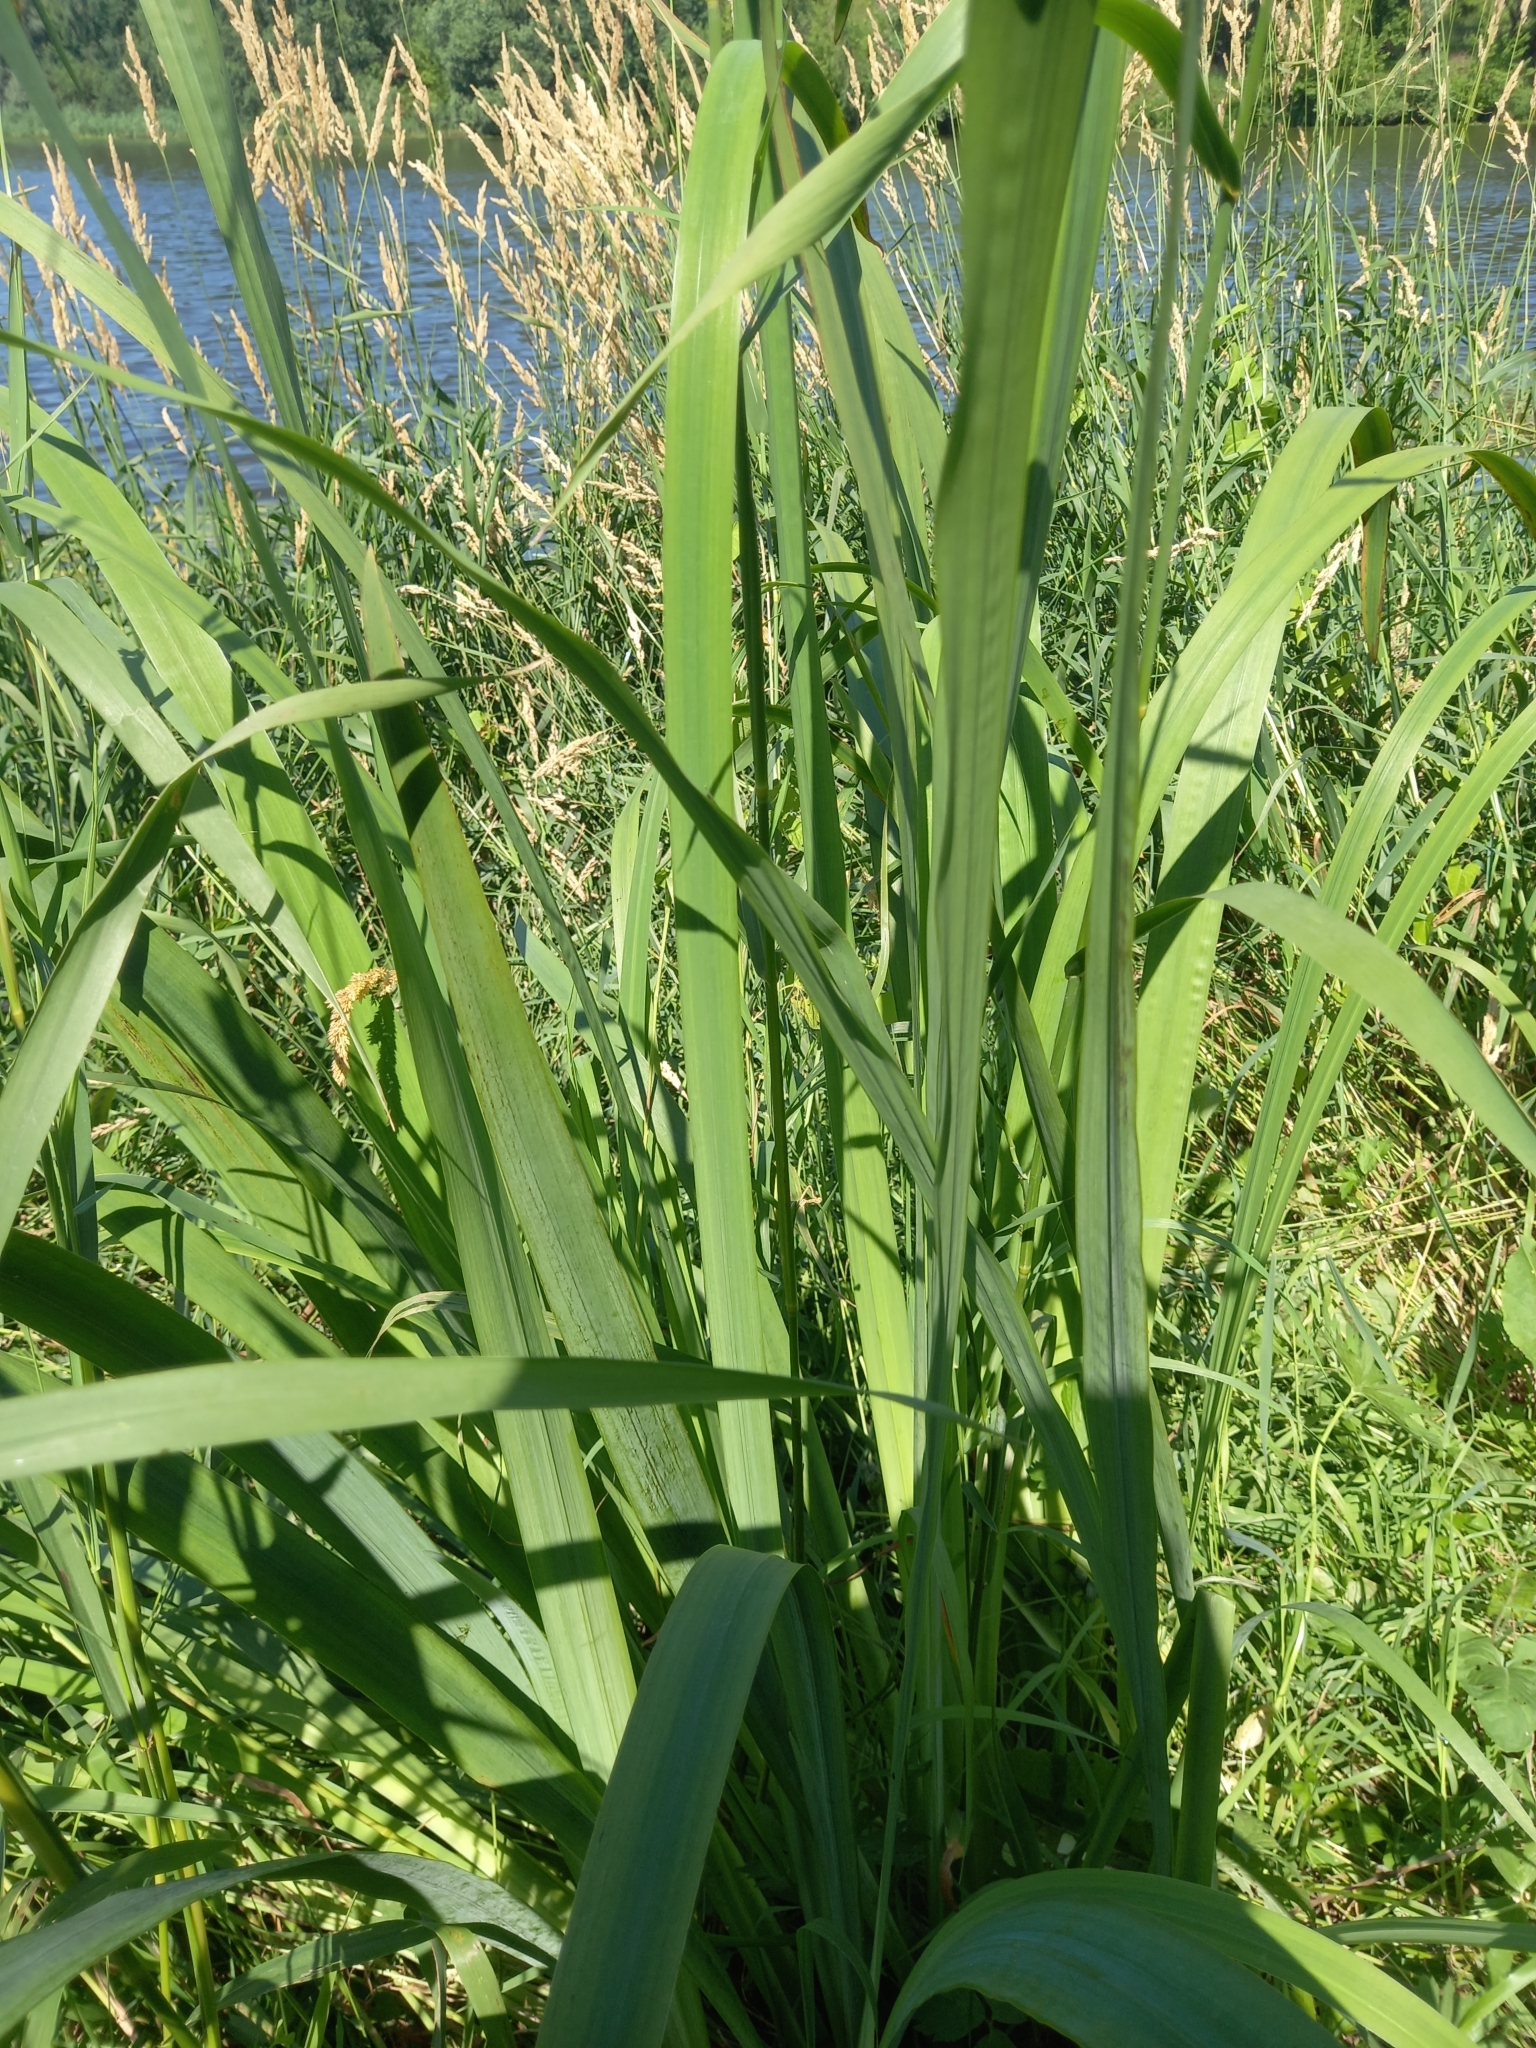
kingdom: Plantae
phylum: Tracheophyta
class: Liliopsida
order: Asparagales
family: Iridaceae
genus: Iris
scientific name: Iris pseudacorus
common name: Yellow flag
